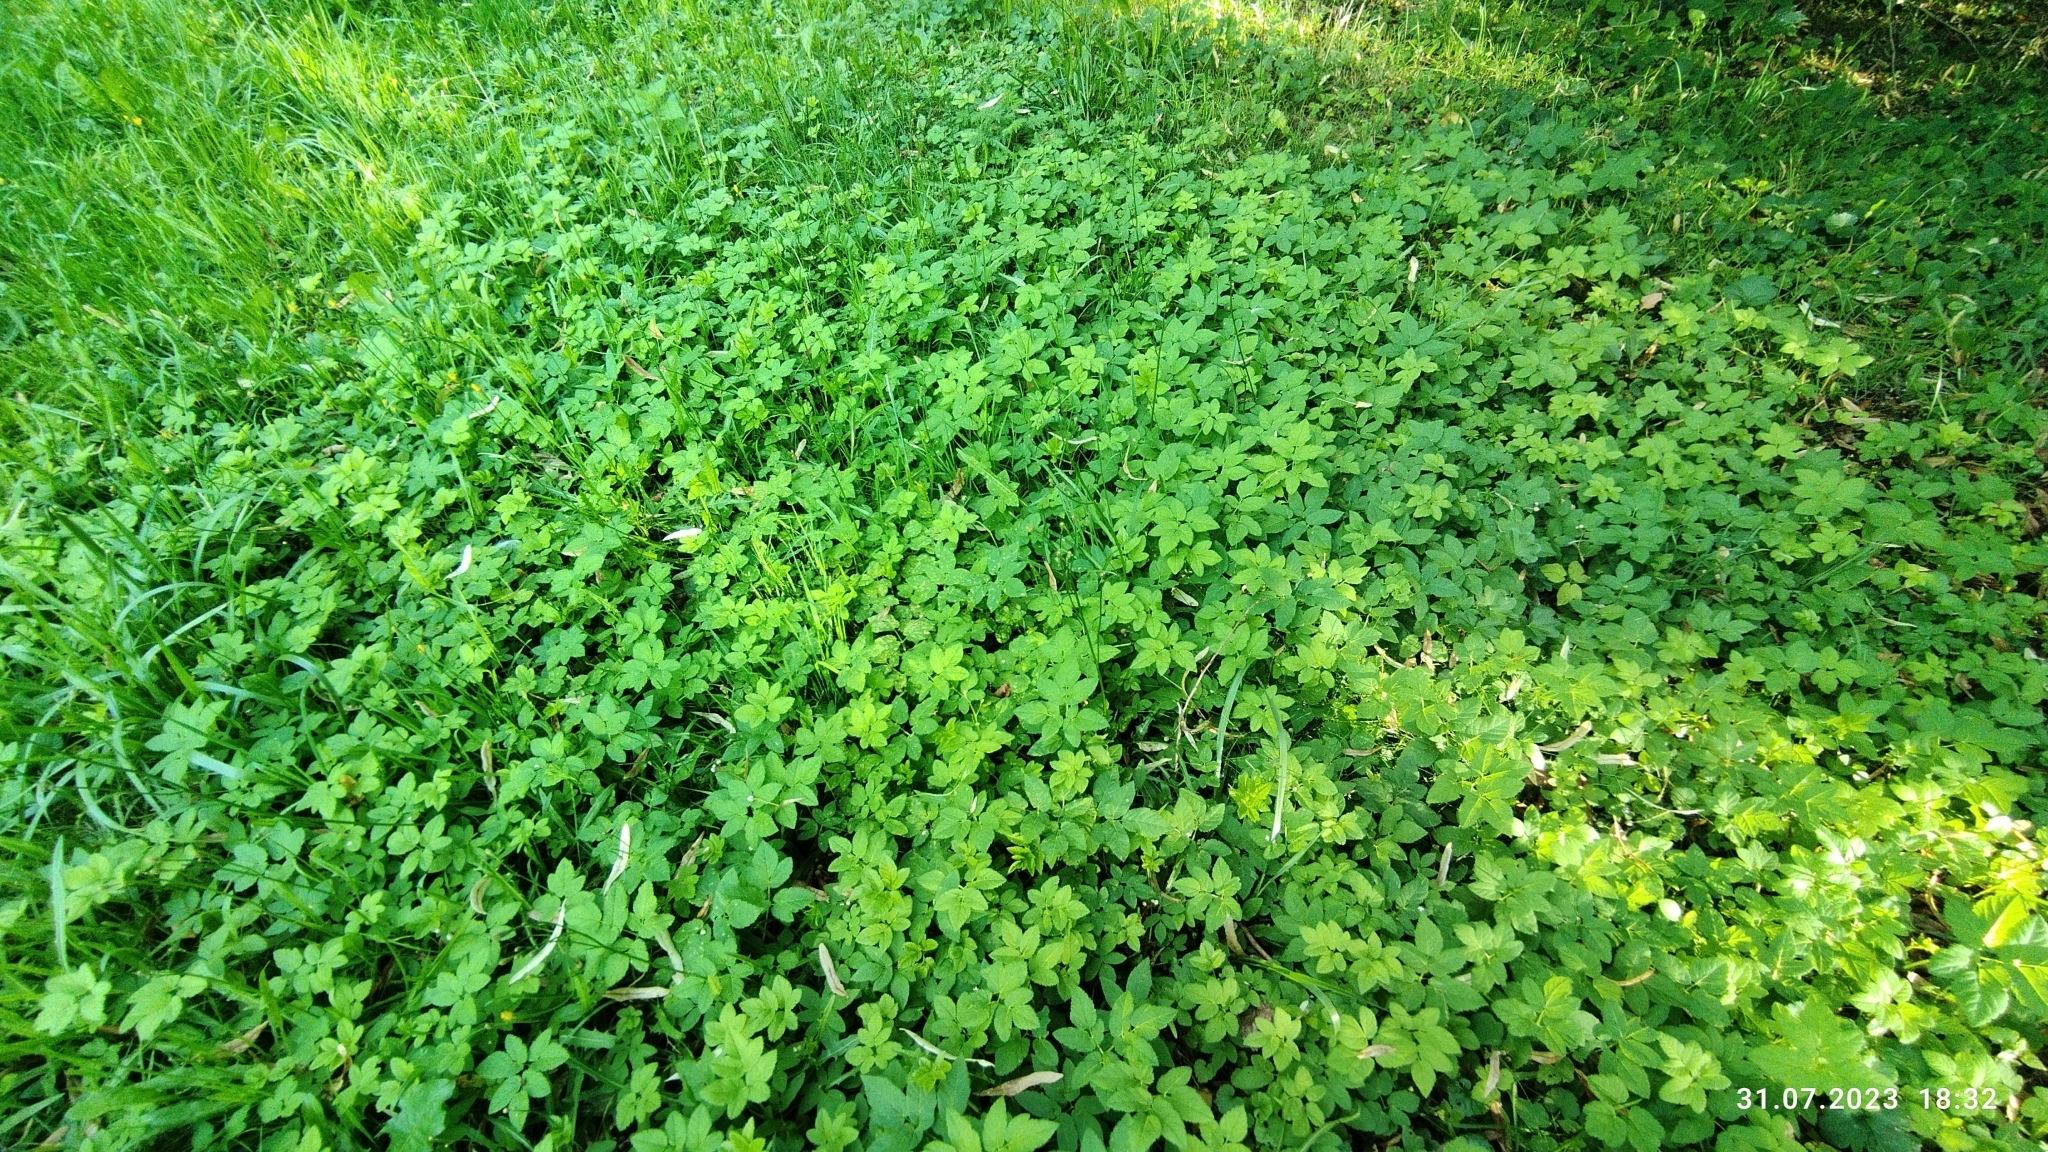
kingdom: Plantae
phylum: Tracheophyta
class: Magnoliopsida
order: Apiales
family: Apiaceae
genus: Aegopodium
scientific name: Aegopodium podagraria
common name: Ground-elder
